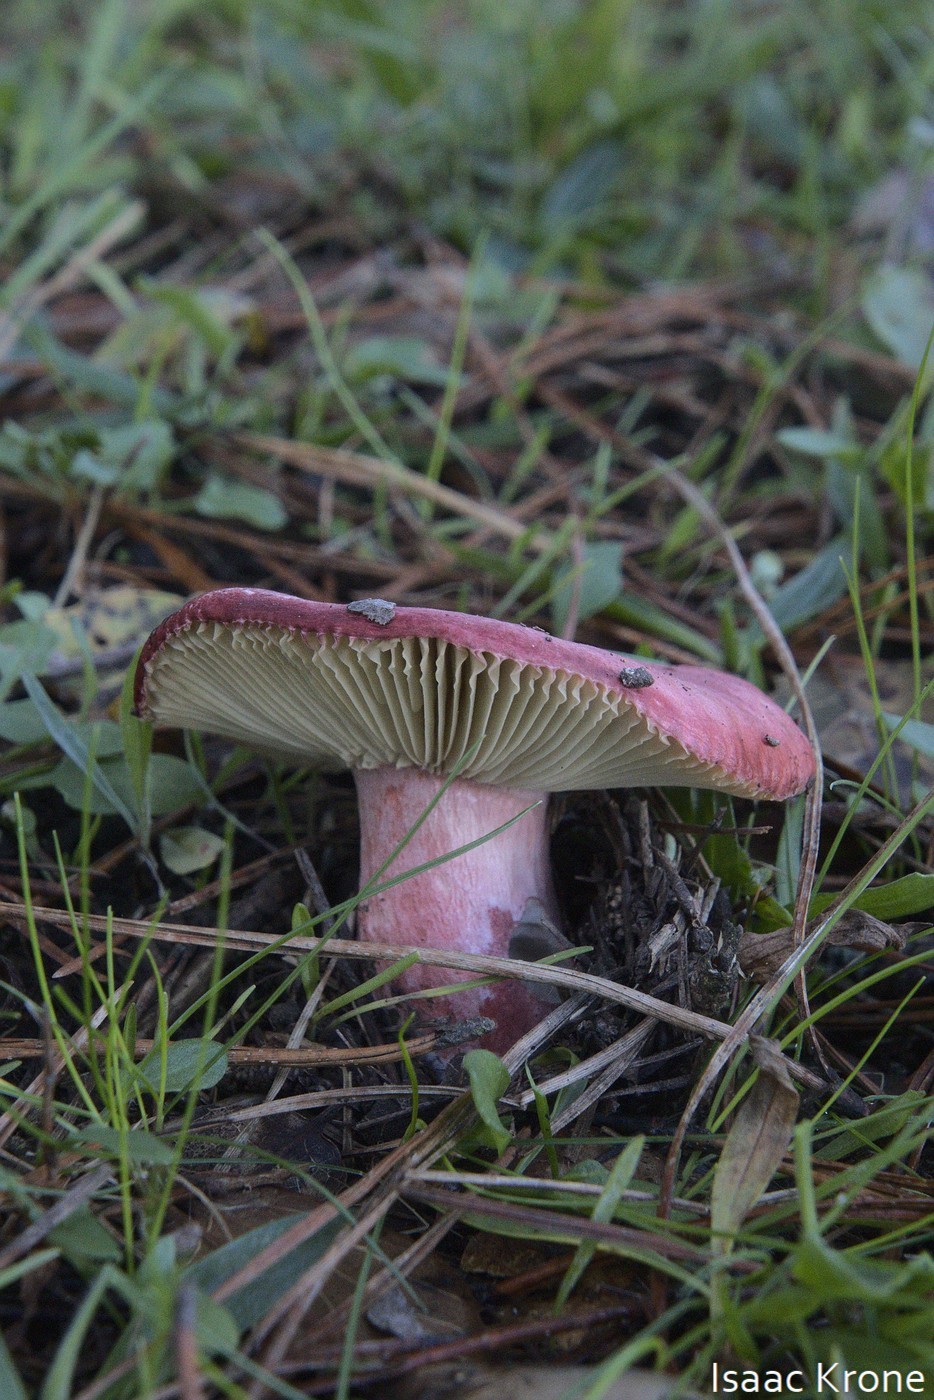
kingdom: Fungi
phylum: Basidiomycota
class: Agaricomycetes
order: Russulales
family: Russulaceae
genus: Russula
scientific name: Russula rhodocephala
